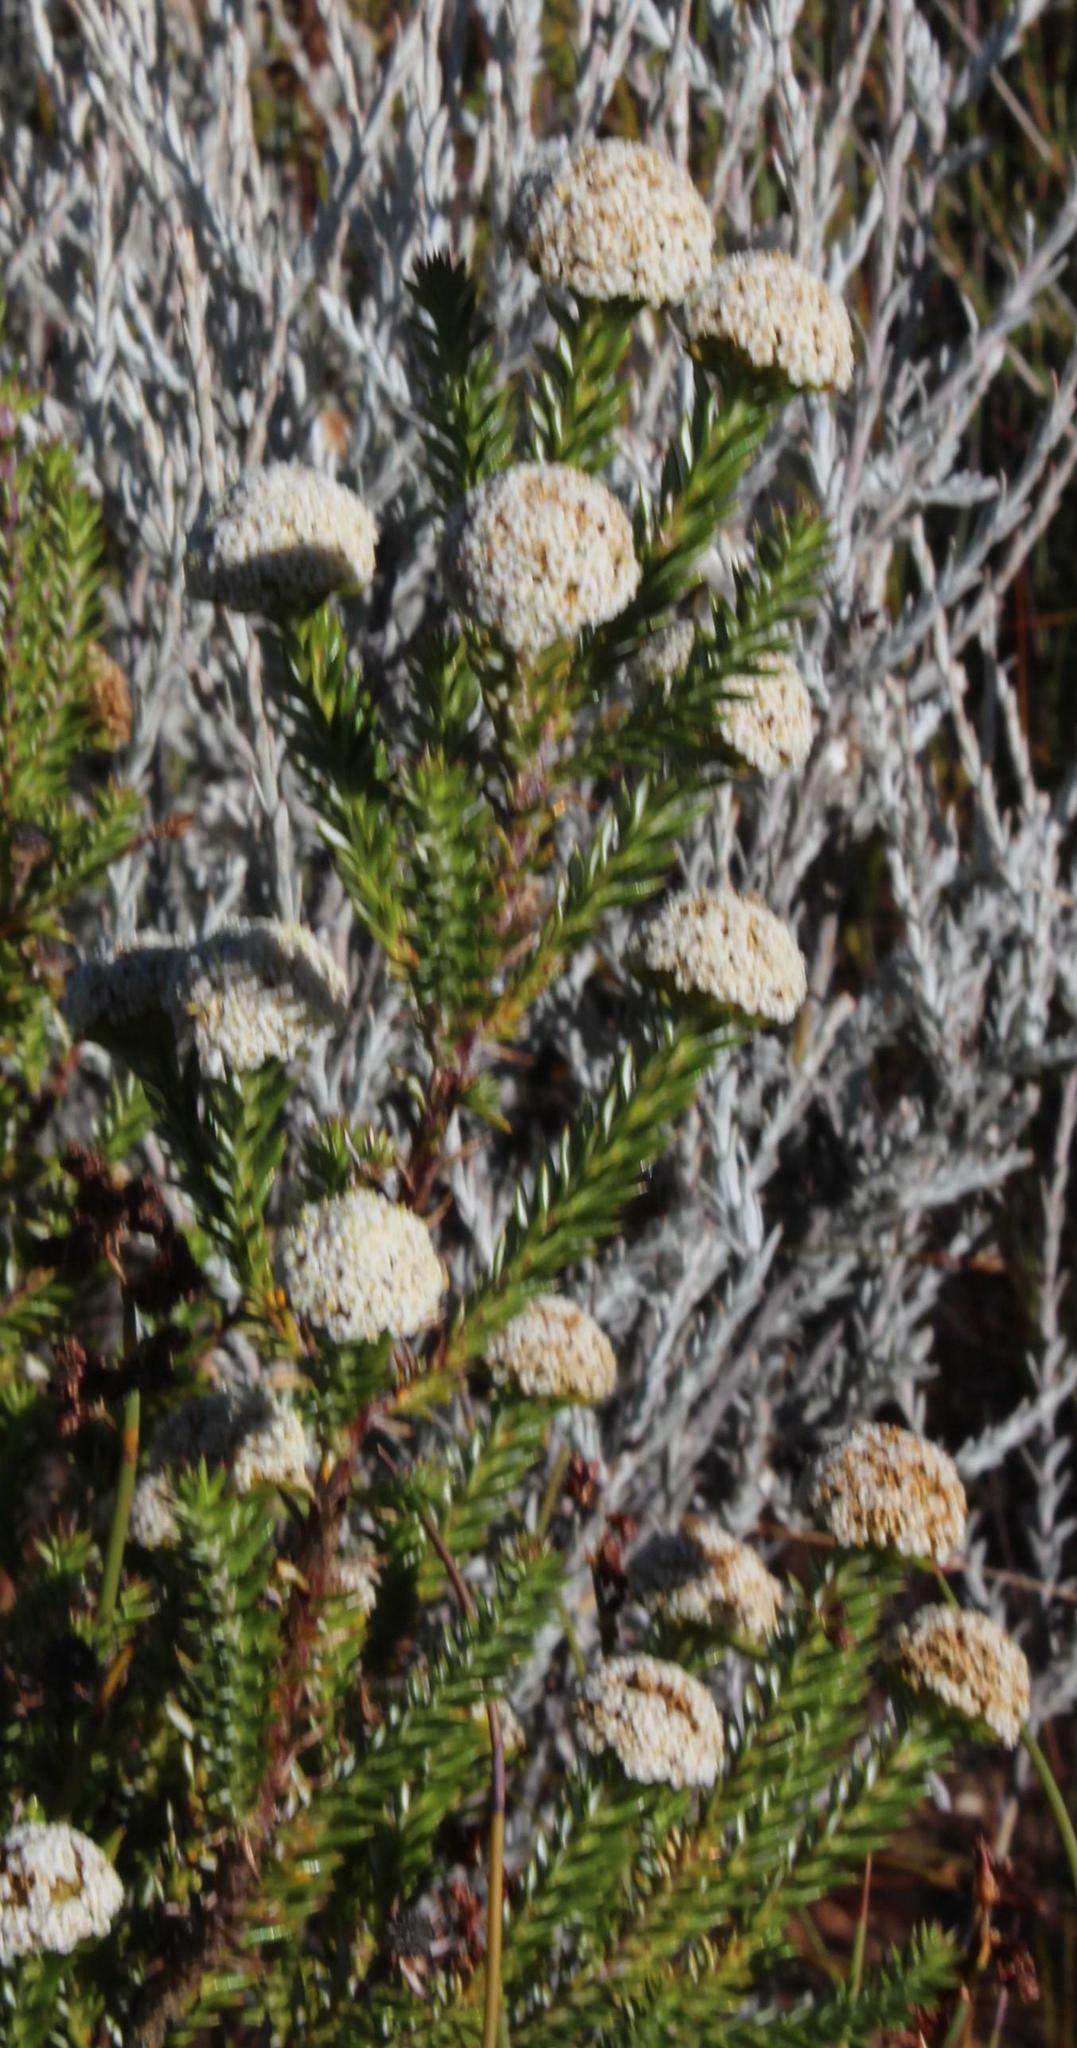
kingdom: Plantae
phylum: Tracheophyta
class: Magnoliopsida
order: Asterales
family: Asteraceae
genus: Stoebe
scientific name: Stoebe aethiopica
